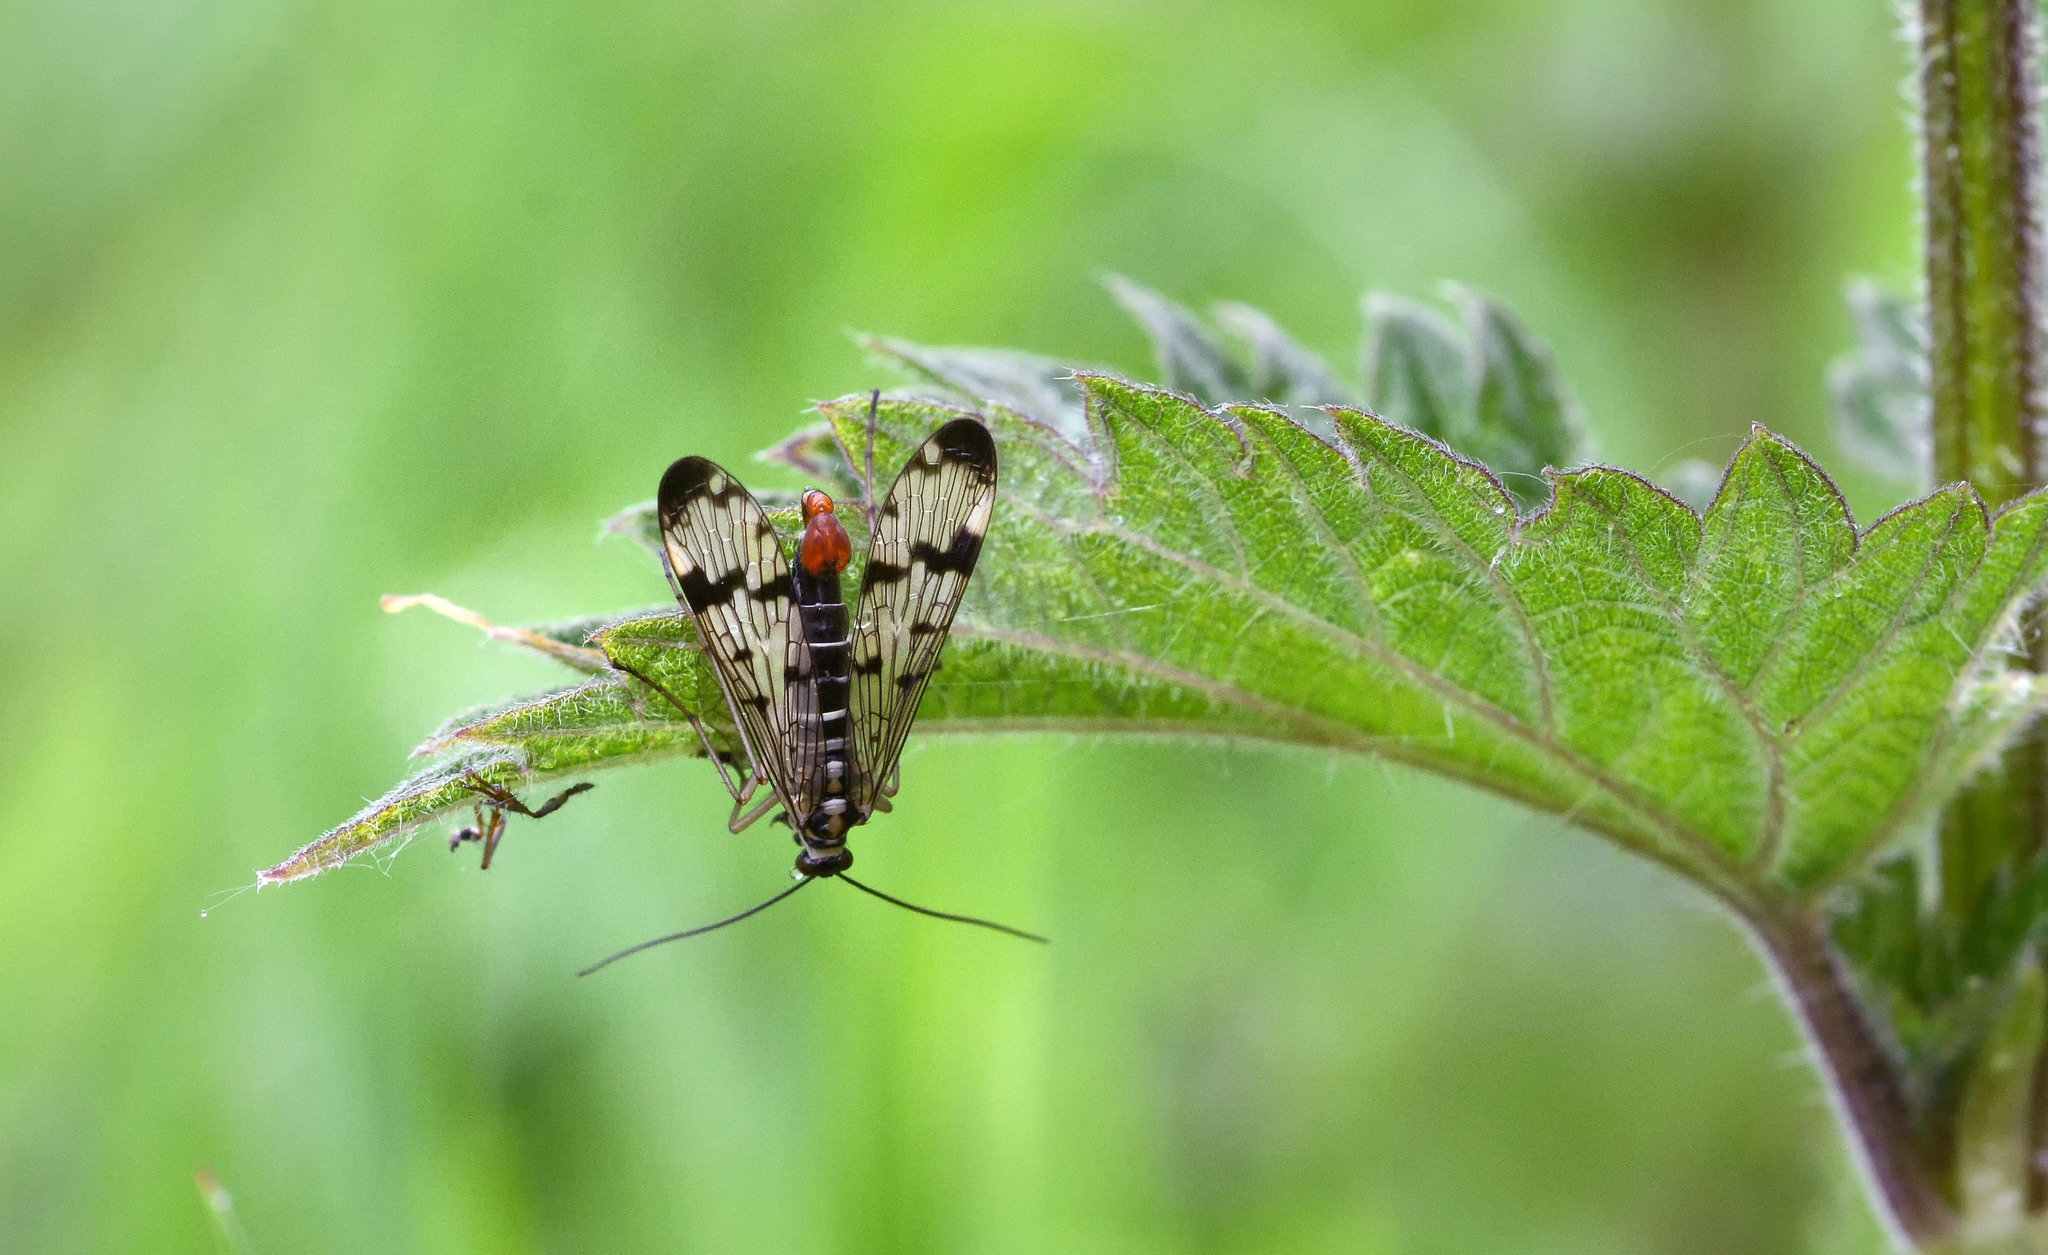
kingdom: Animalia
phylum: Arthropoda
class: Insecta
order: Mecoptera
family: Panorpidae
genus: Panorpa
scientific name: Panorpa communis
